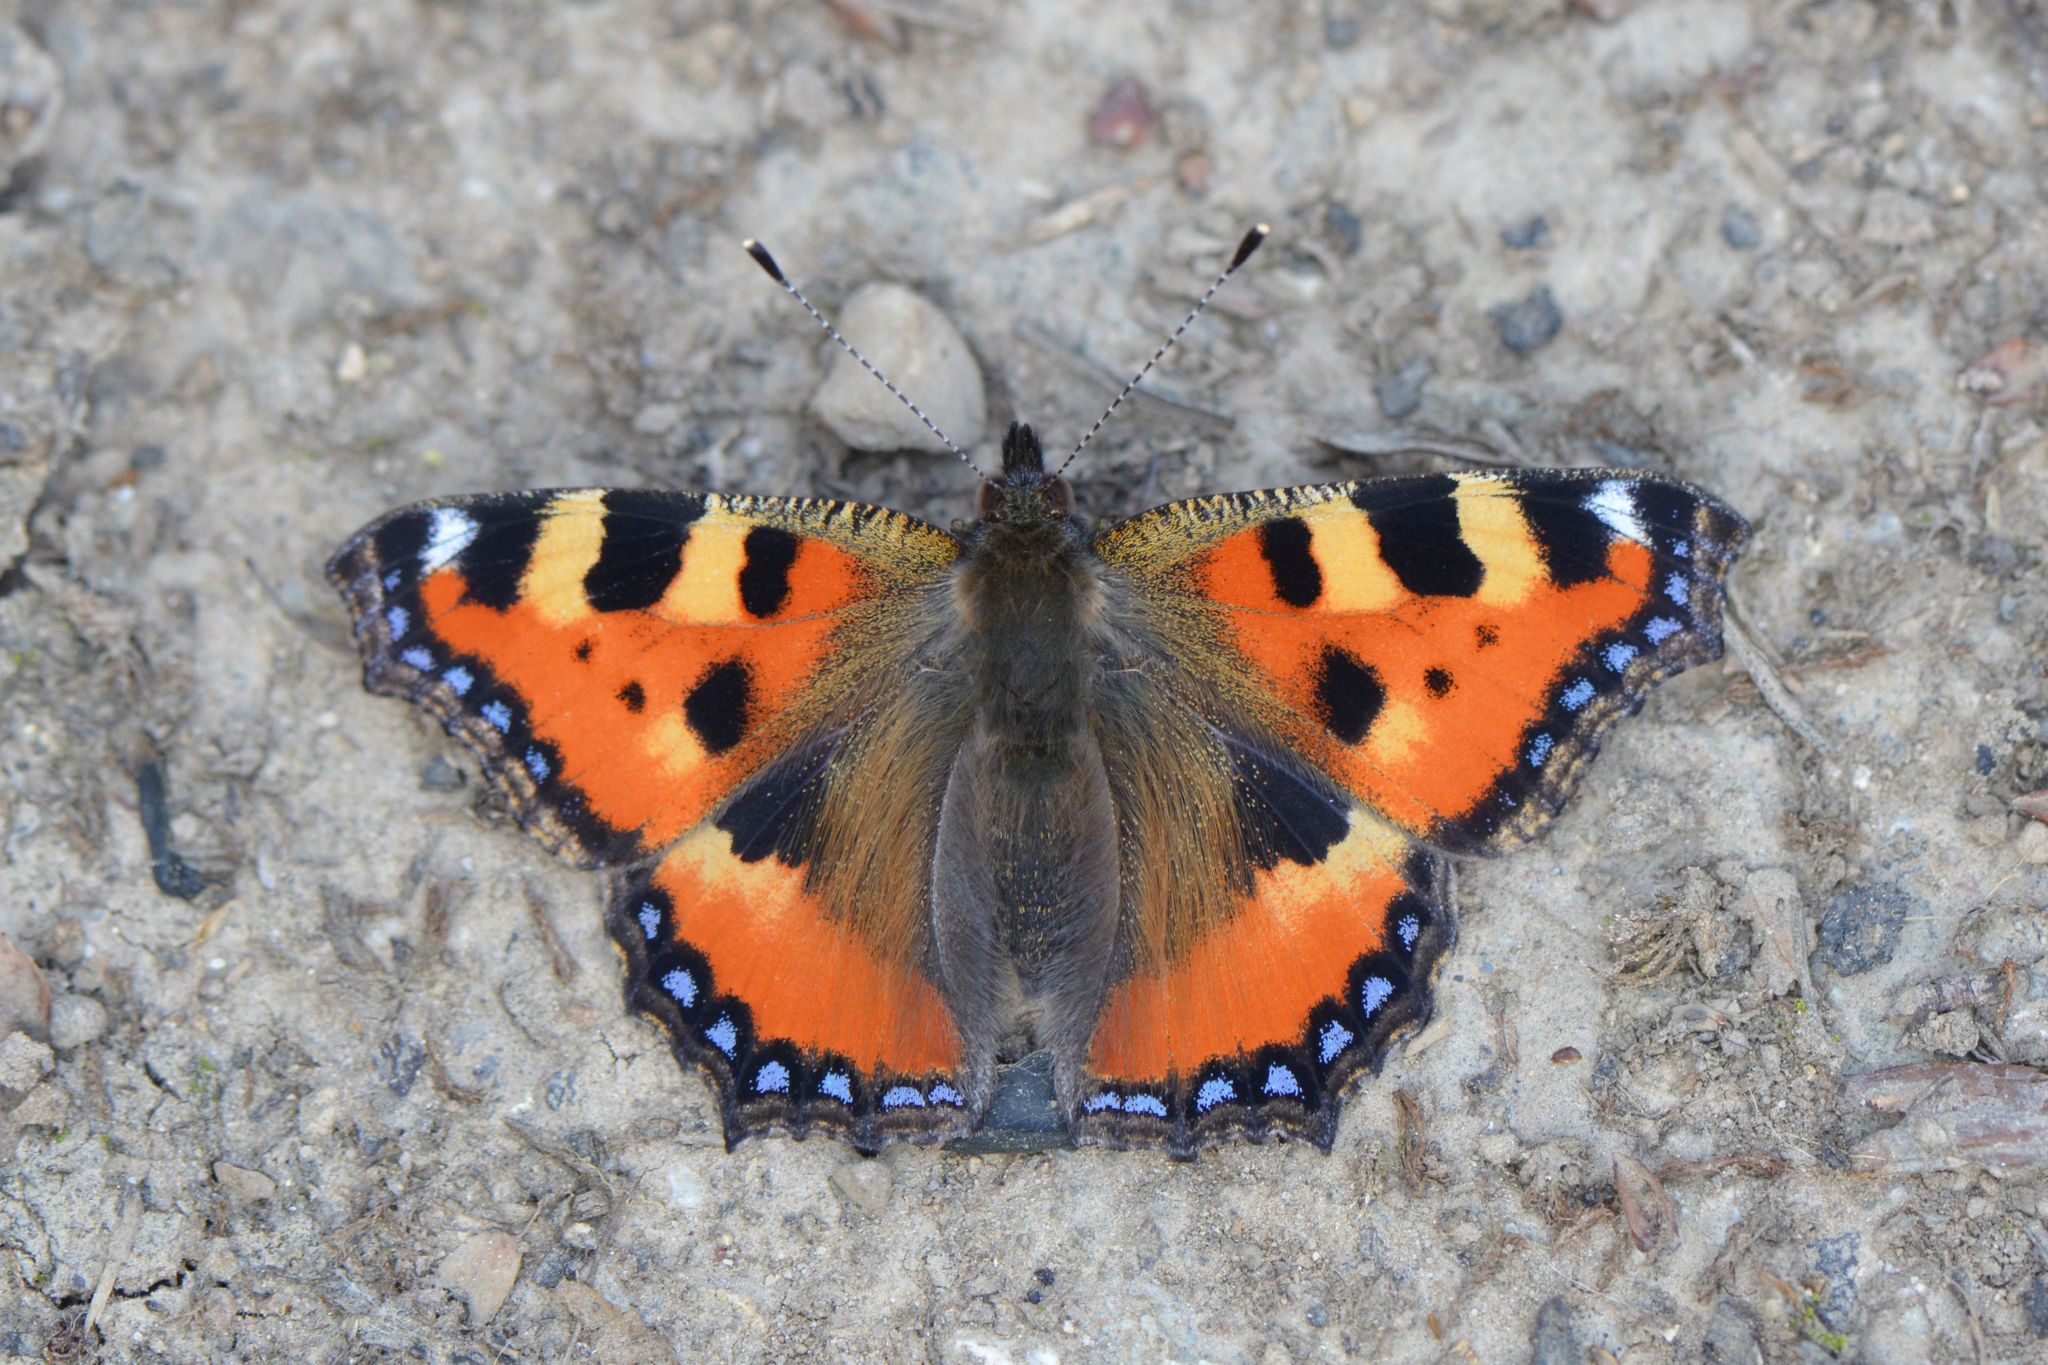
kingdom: Animalia
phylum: Arthropoda
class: Insecta
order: Lepidoptera
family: Nymphalidae
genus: Aglais
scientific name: Aglais urticae
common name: Small tortoiseshell
